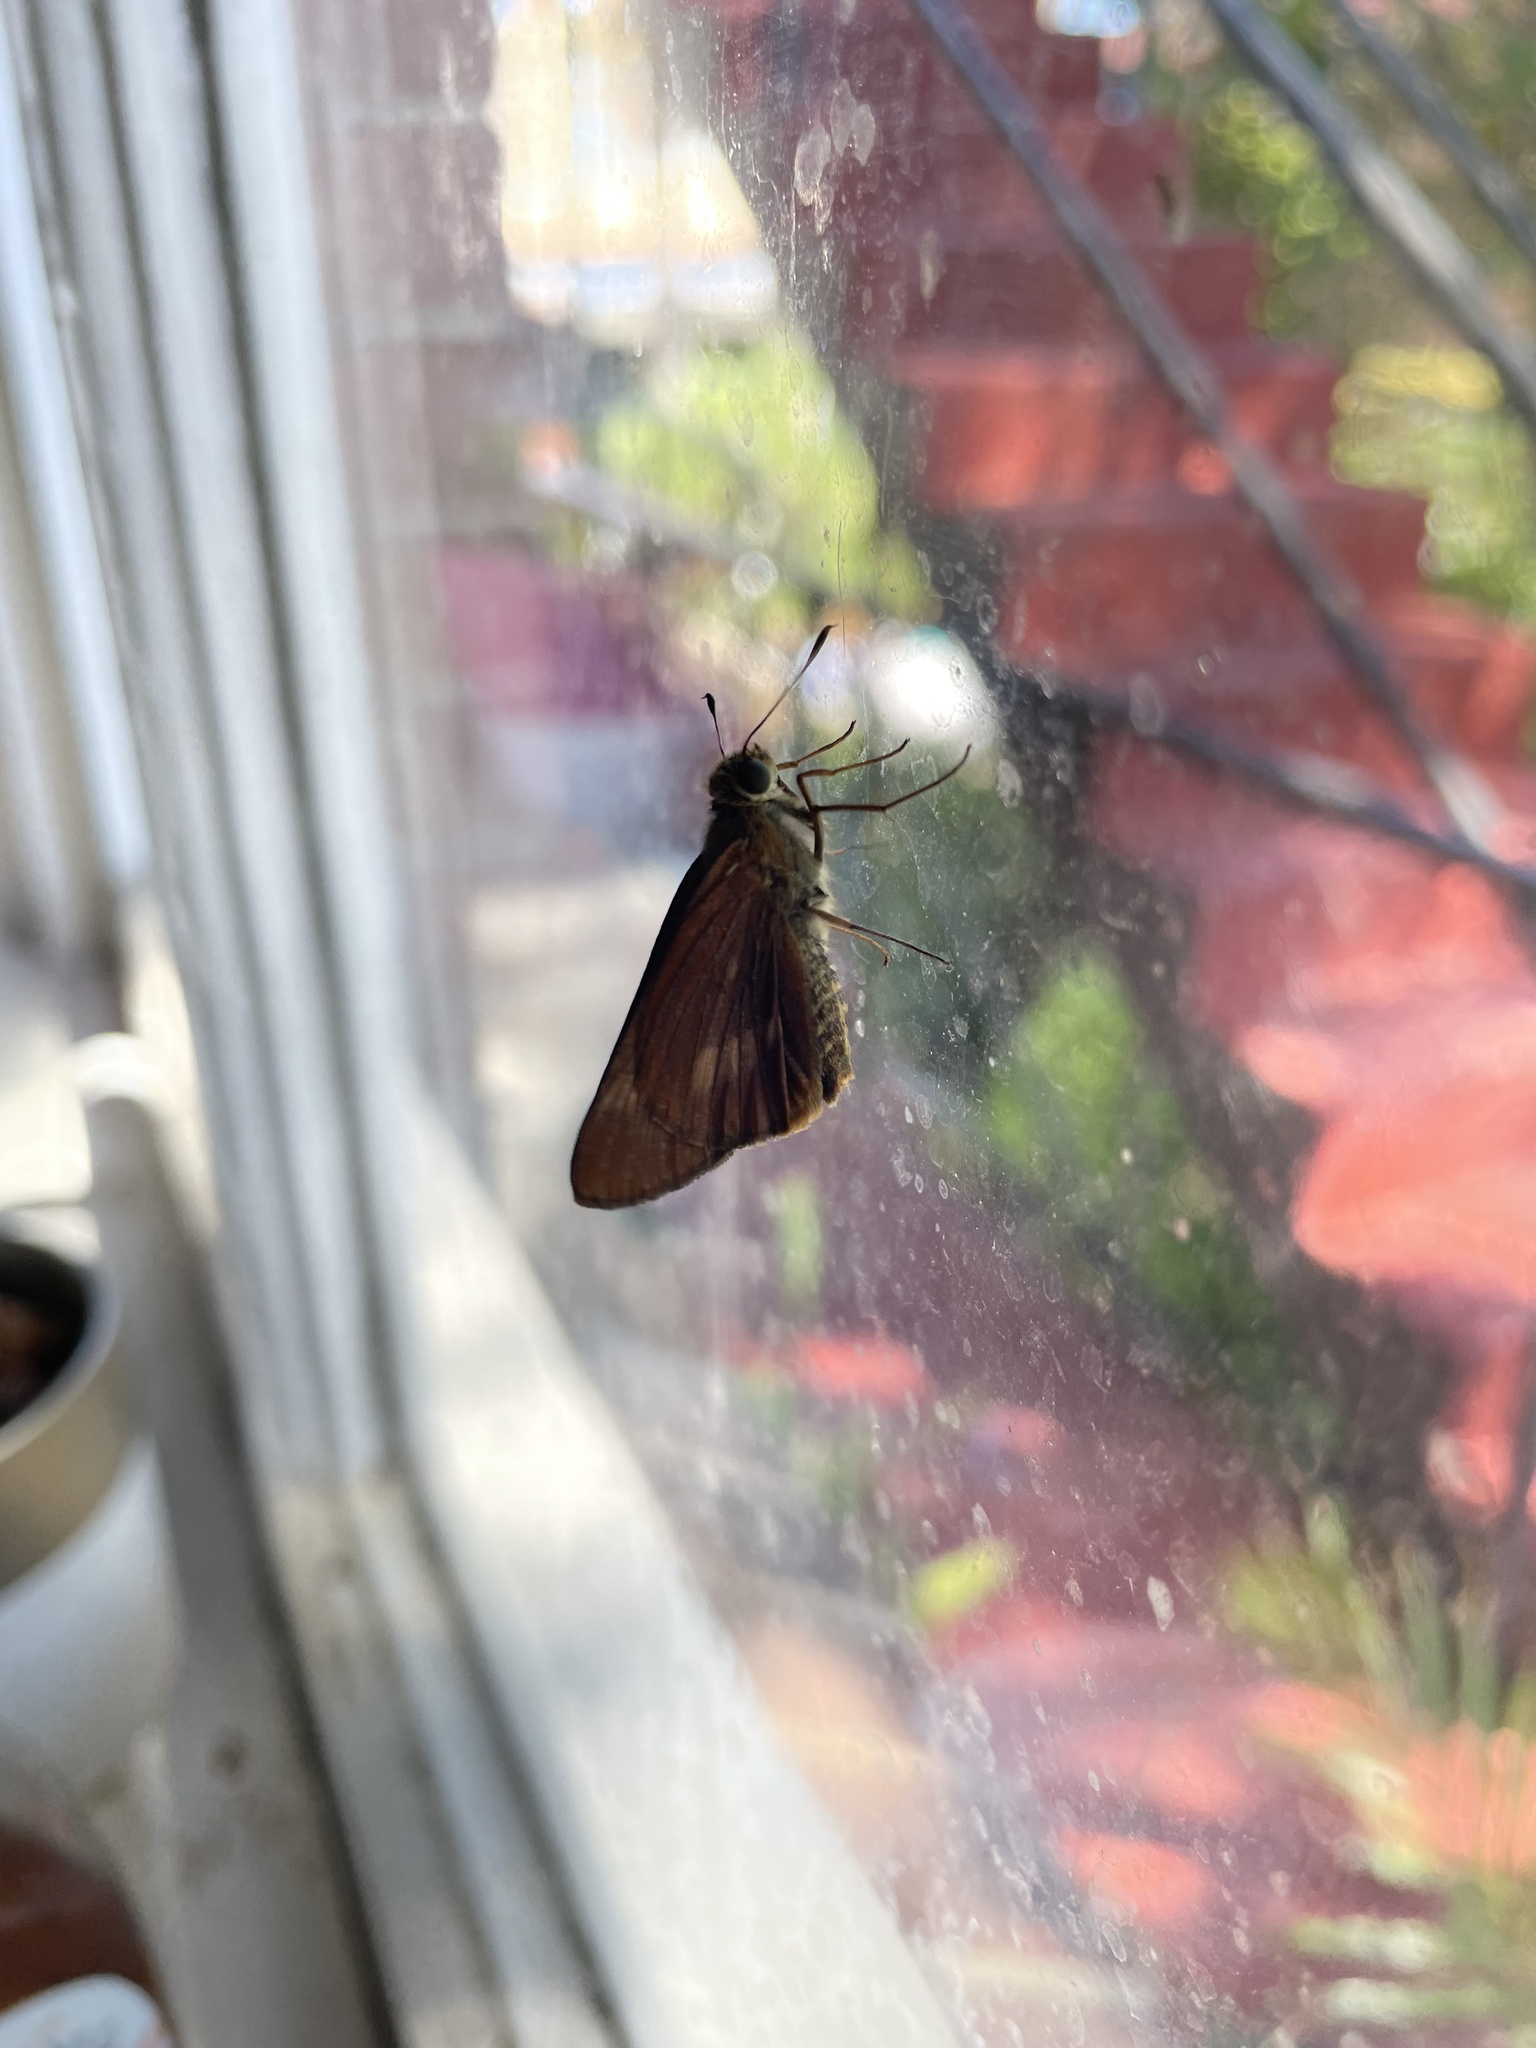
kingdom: Animalia
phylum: Arthropoda
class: Insecta
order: Lepidoptera
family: Hesperiidae
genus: Cephrenes
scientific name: Cephrenes augiades
